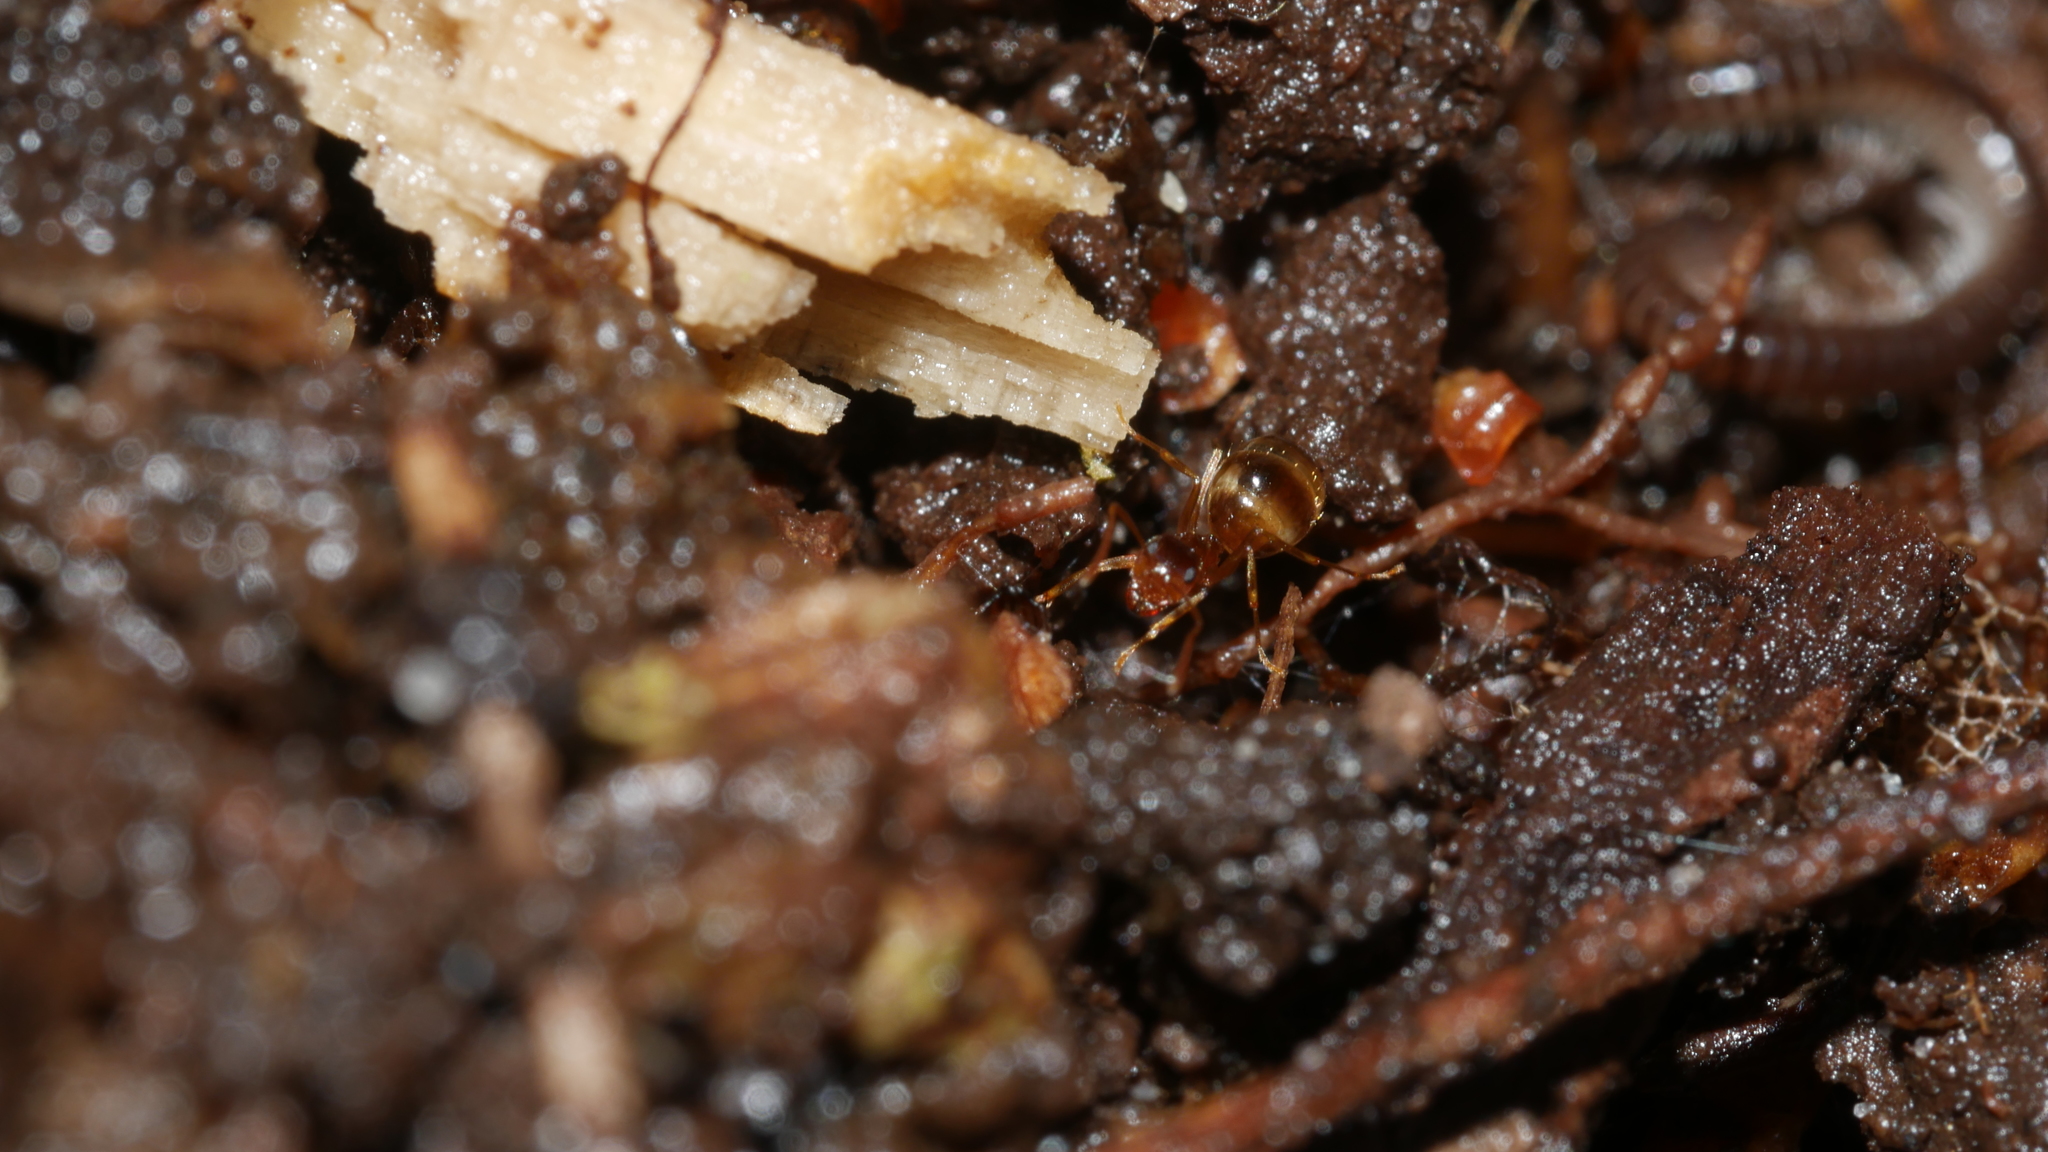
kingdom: Animalia
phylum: Arthropoda
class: Insecta
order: Hymenoptera
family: Formicidae
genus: Prenolepis
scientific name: Prenolepis imparis
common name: Small honey ant
